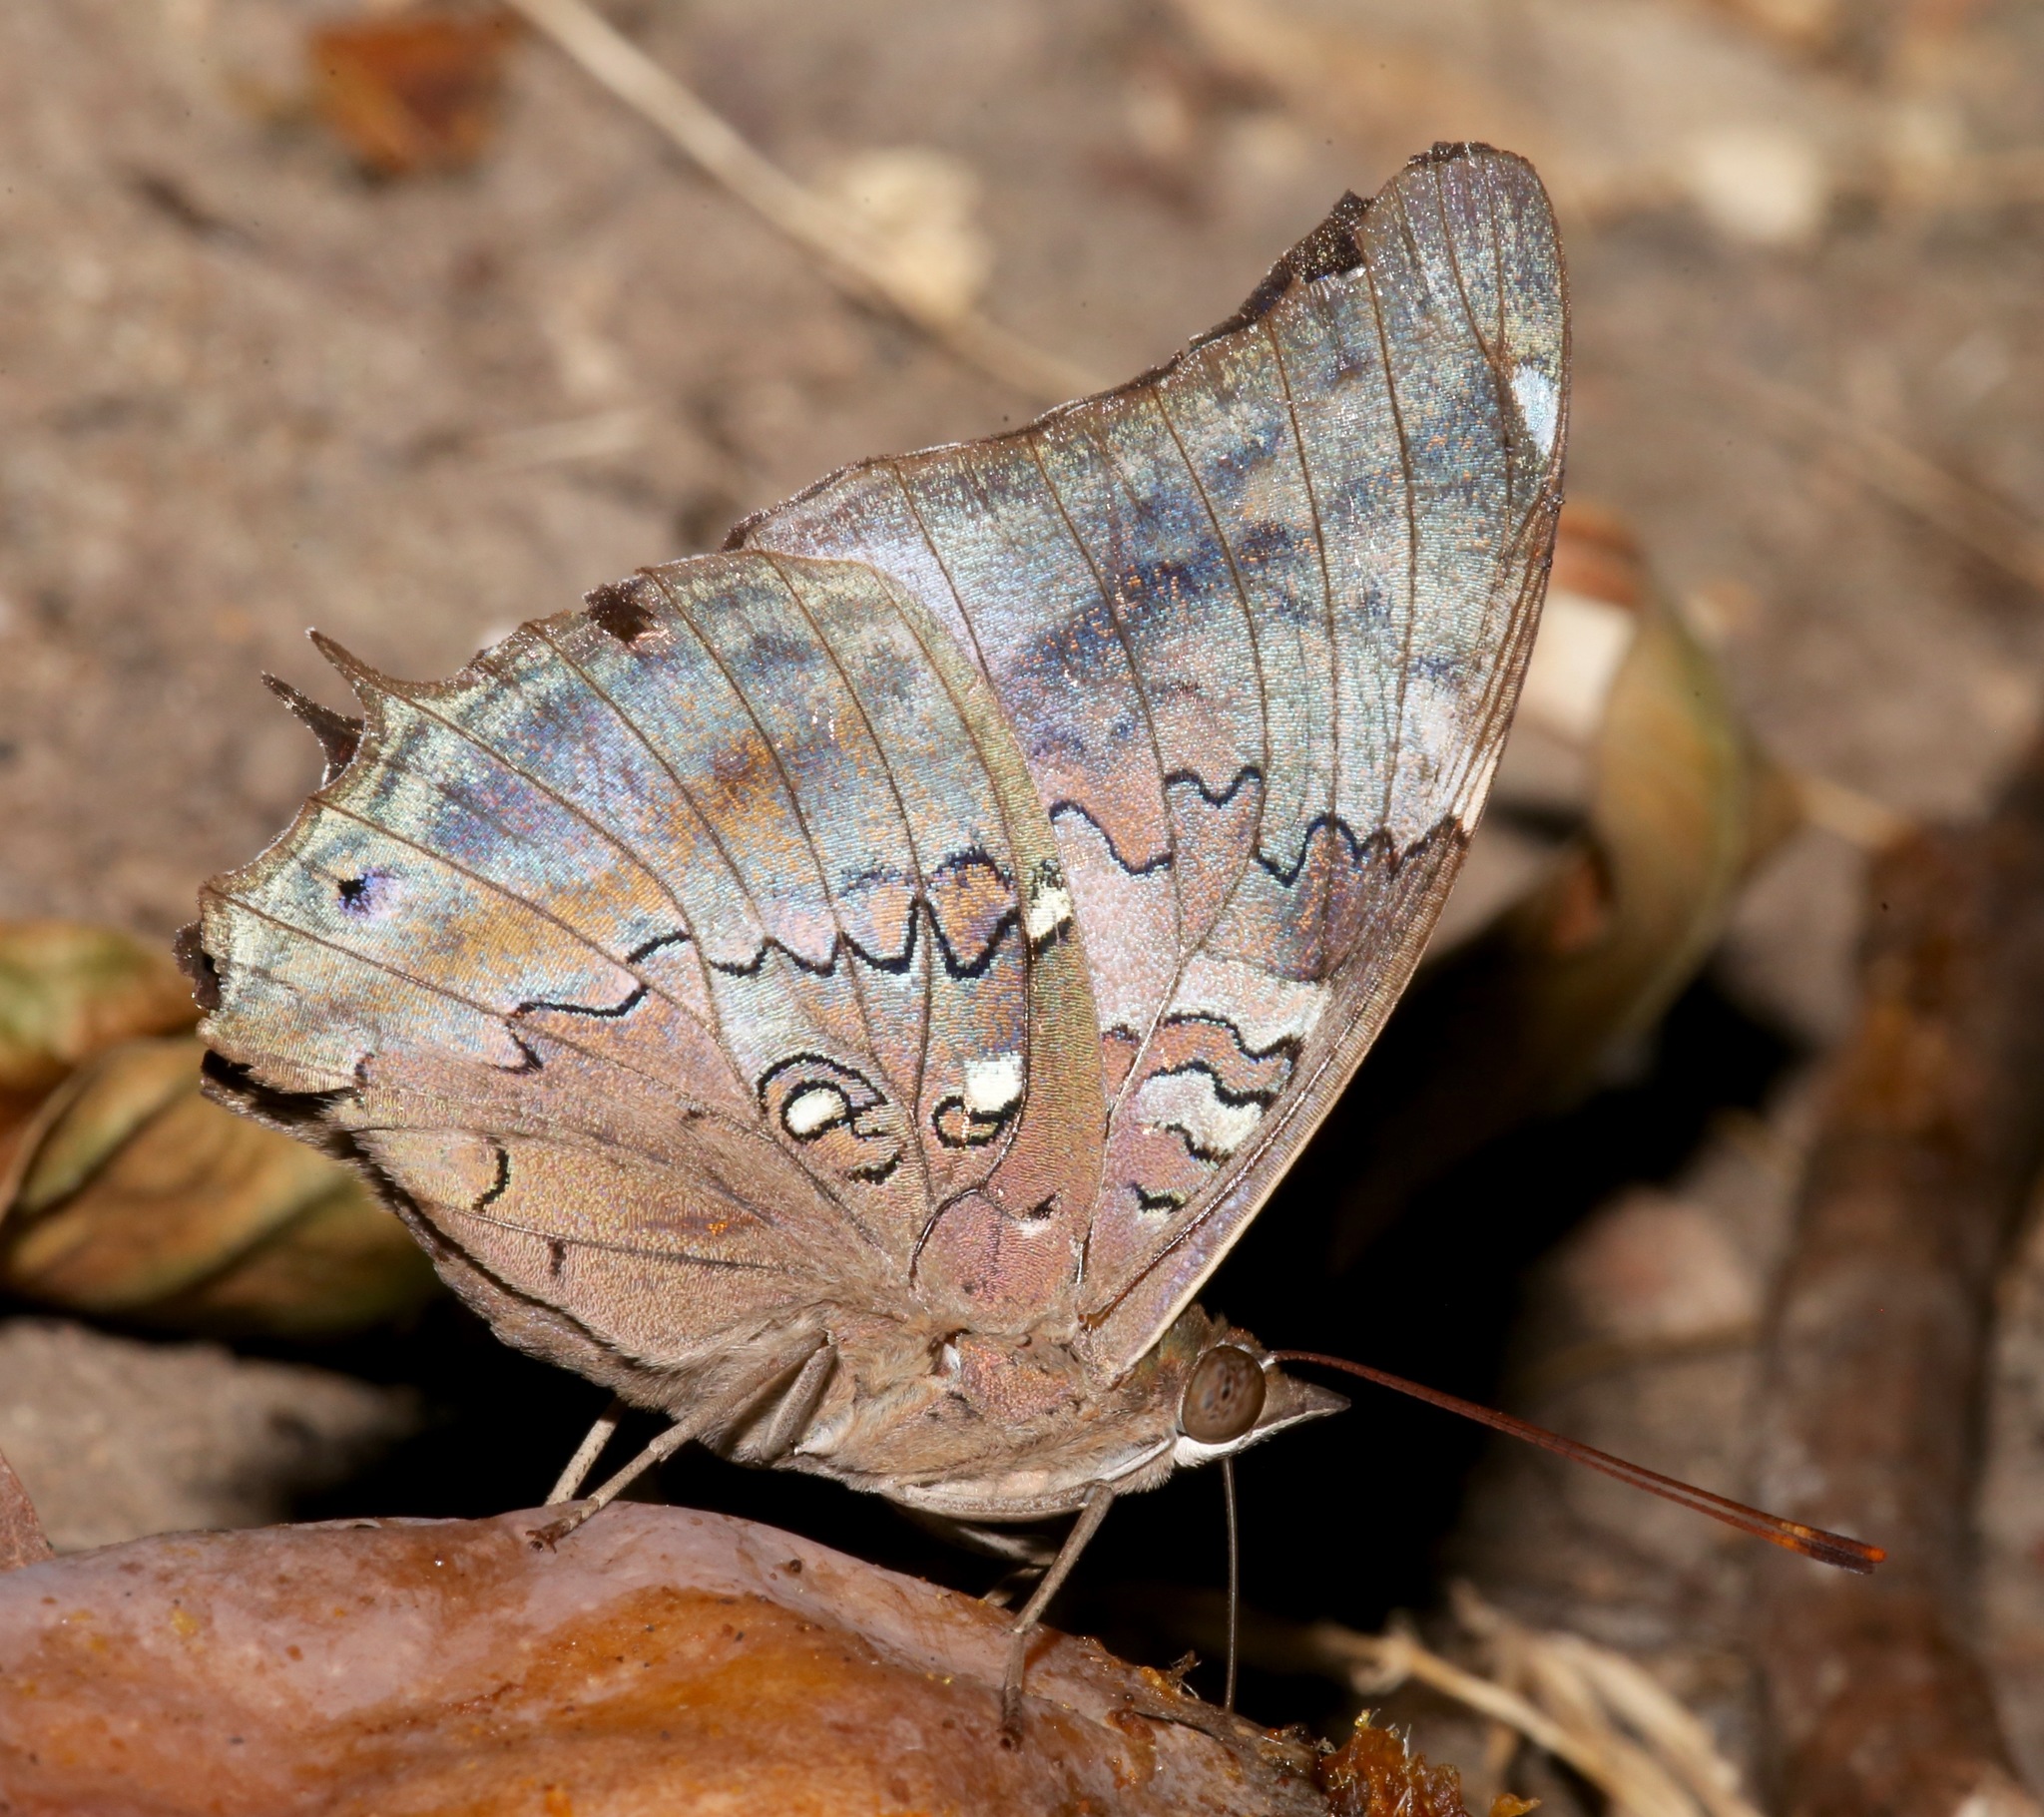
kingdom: Animalia
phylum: Arthropoda
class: Insecta
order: Lepidoptera
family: Nymphalidae
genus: Coea
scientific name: Coea acheronta
